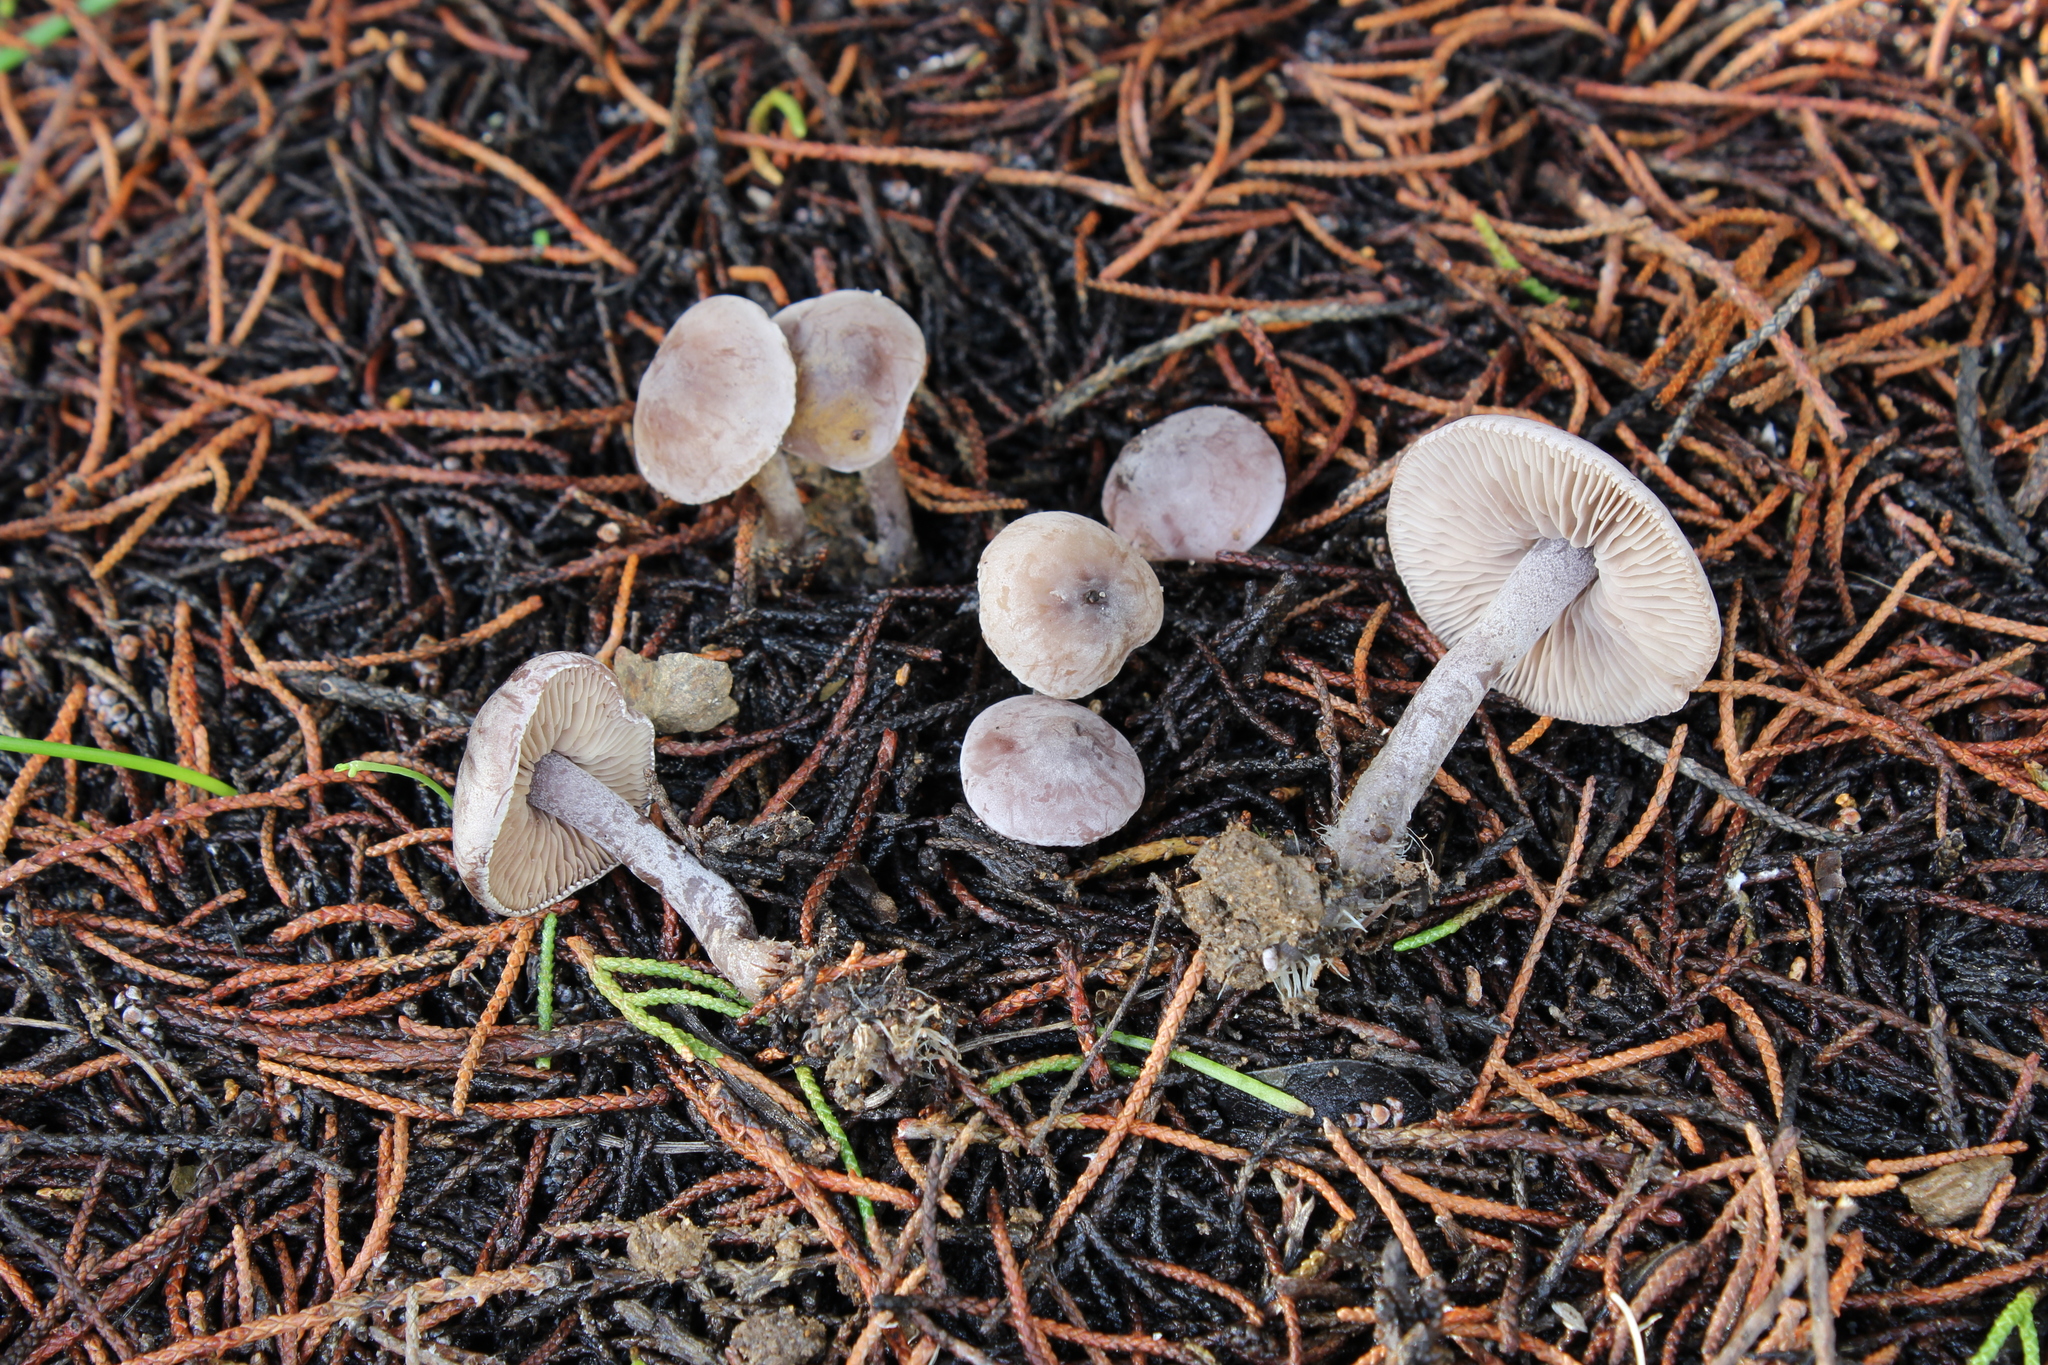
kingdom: Fungi
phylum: Basidiomycota
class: Agaricomycetes
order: Agaricales
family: Tricholomataceae
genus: Pseudobaeospora
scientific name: Pseudobaeospora pallidifolia
